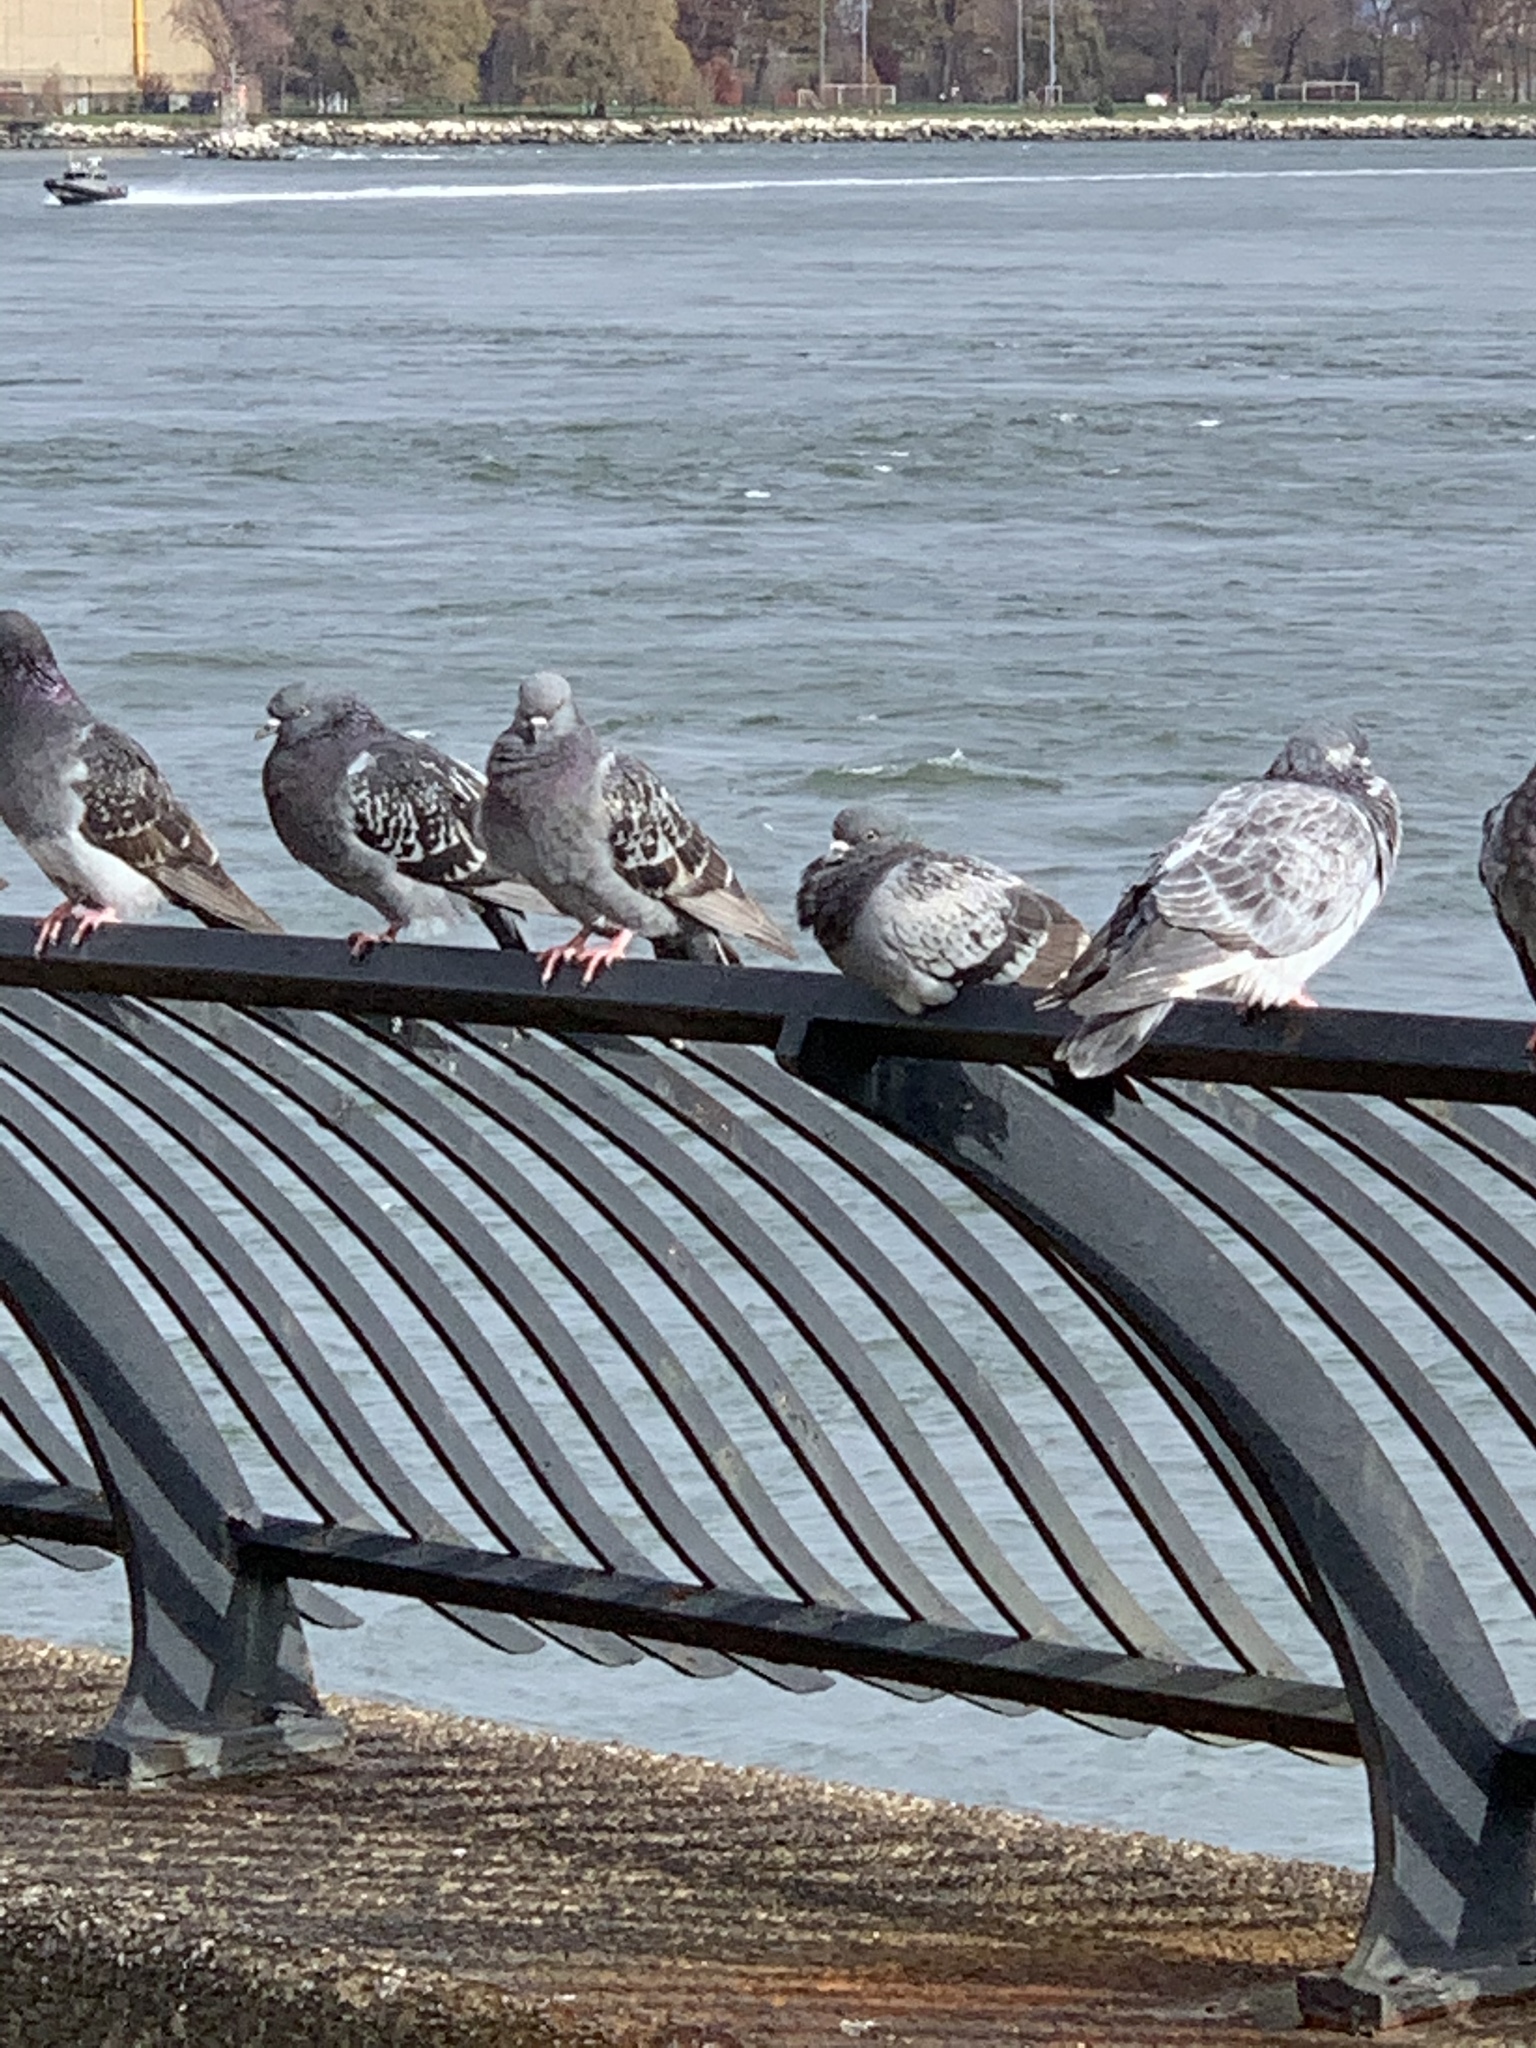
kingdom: Animalia
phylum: Chordata
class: Aves
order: Columbiformes
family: Columbidae
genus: Columba
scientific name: Columba livia
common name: Rock pigeon
